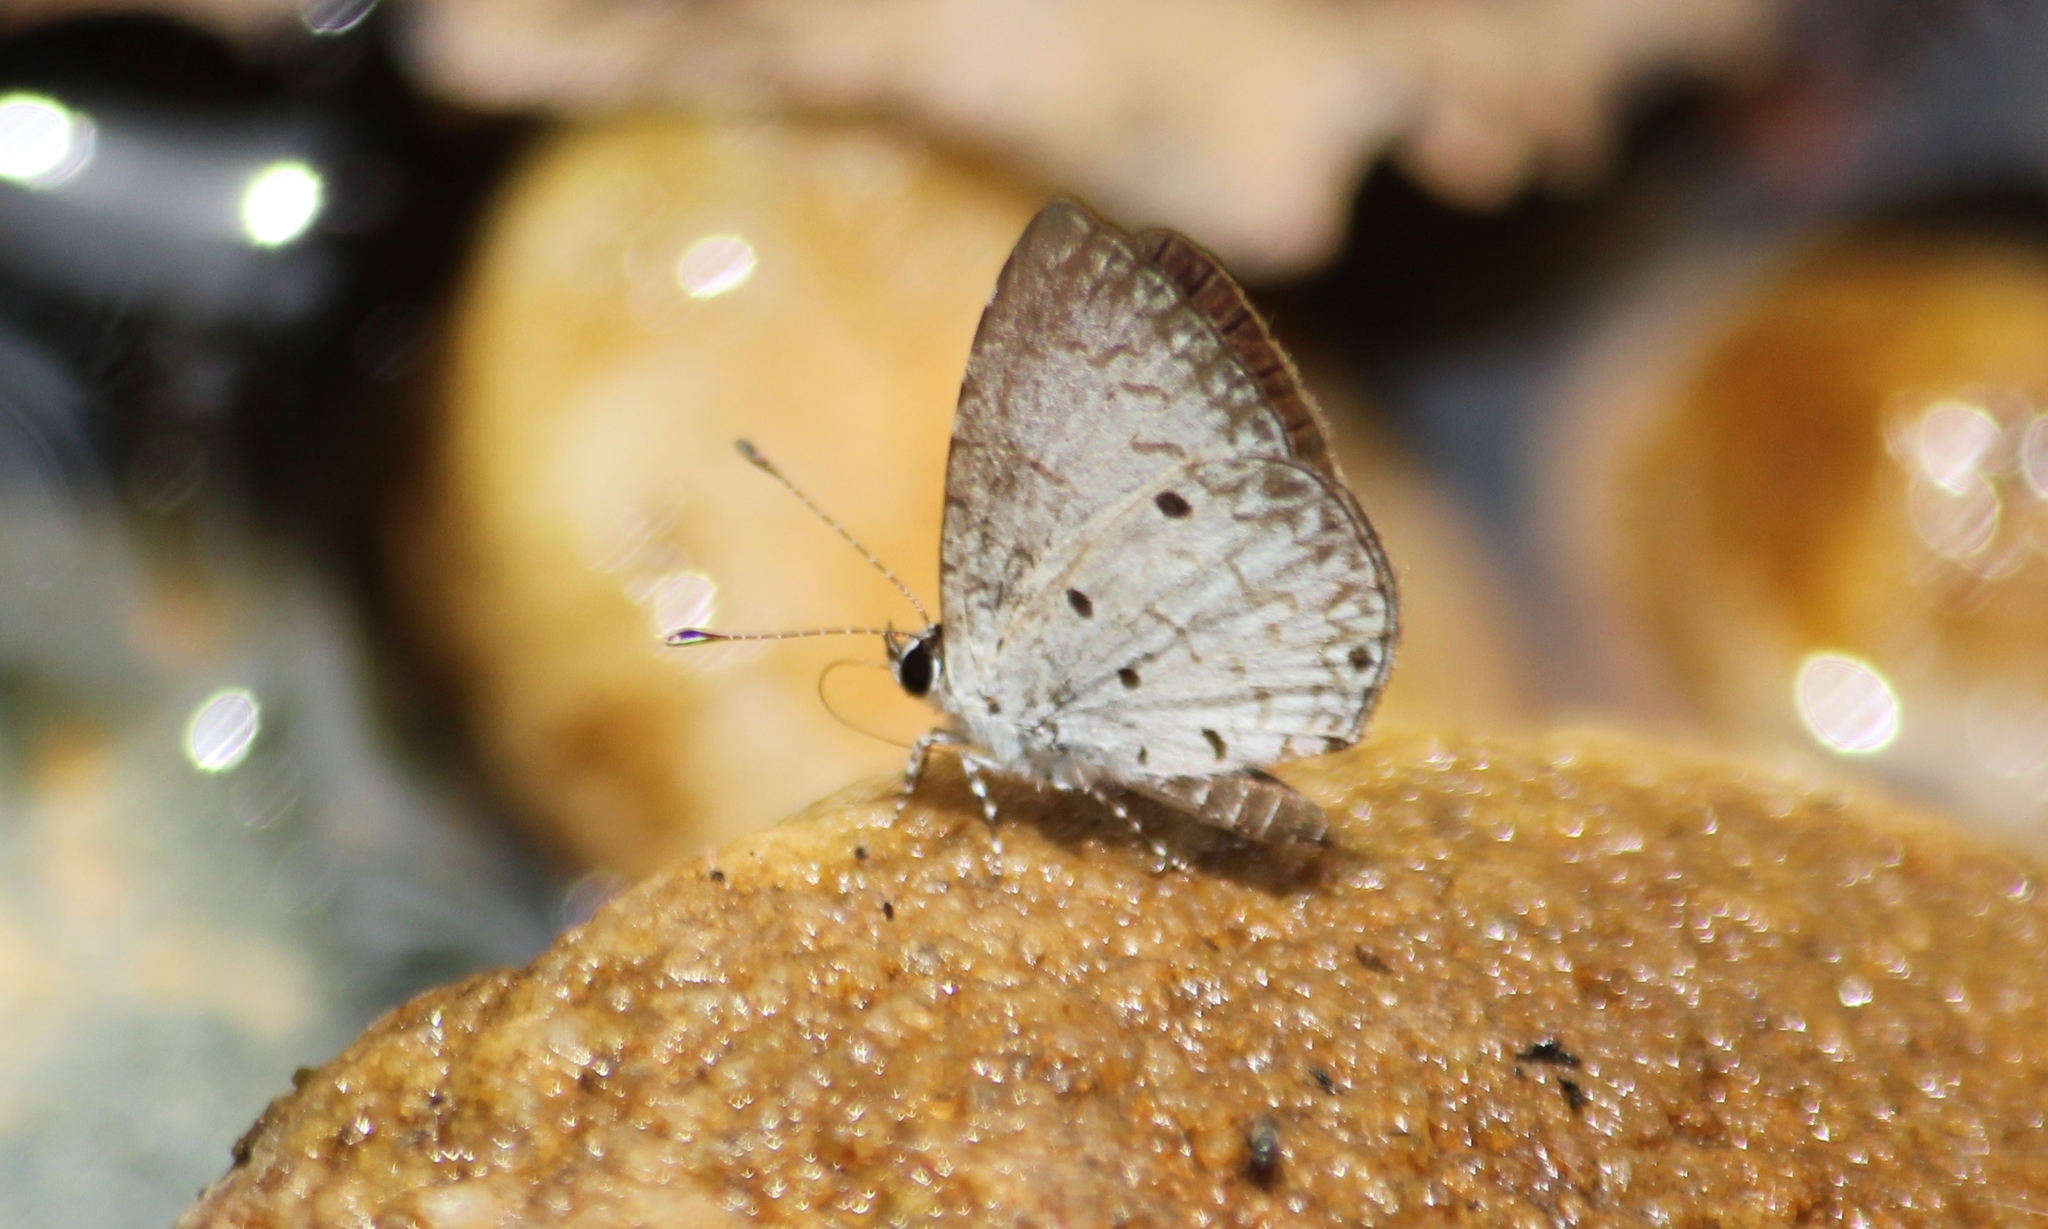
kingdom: Animalia
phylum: Arthropoda
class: Insecta
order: Lepidoptera
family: Lycaenidae
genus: Megisba
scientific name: Megisba malaya
